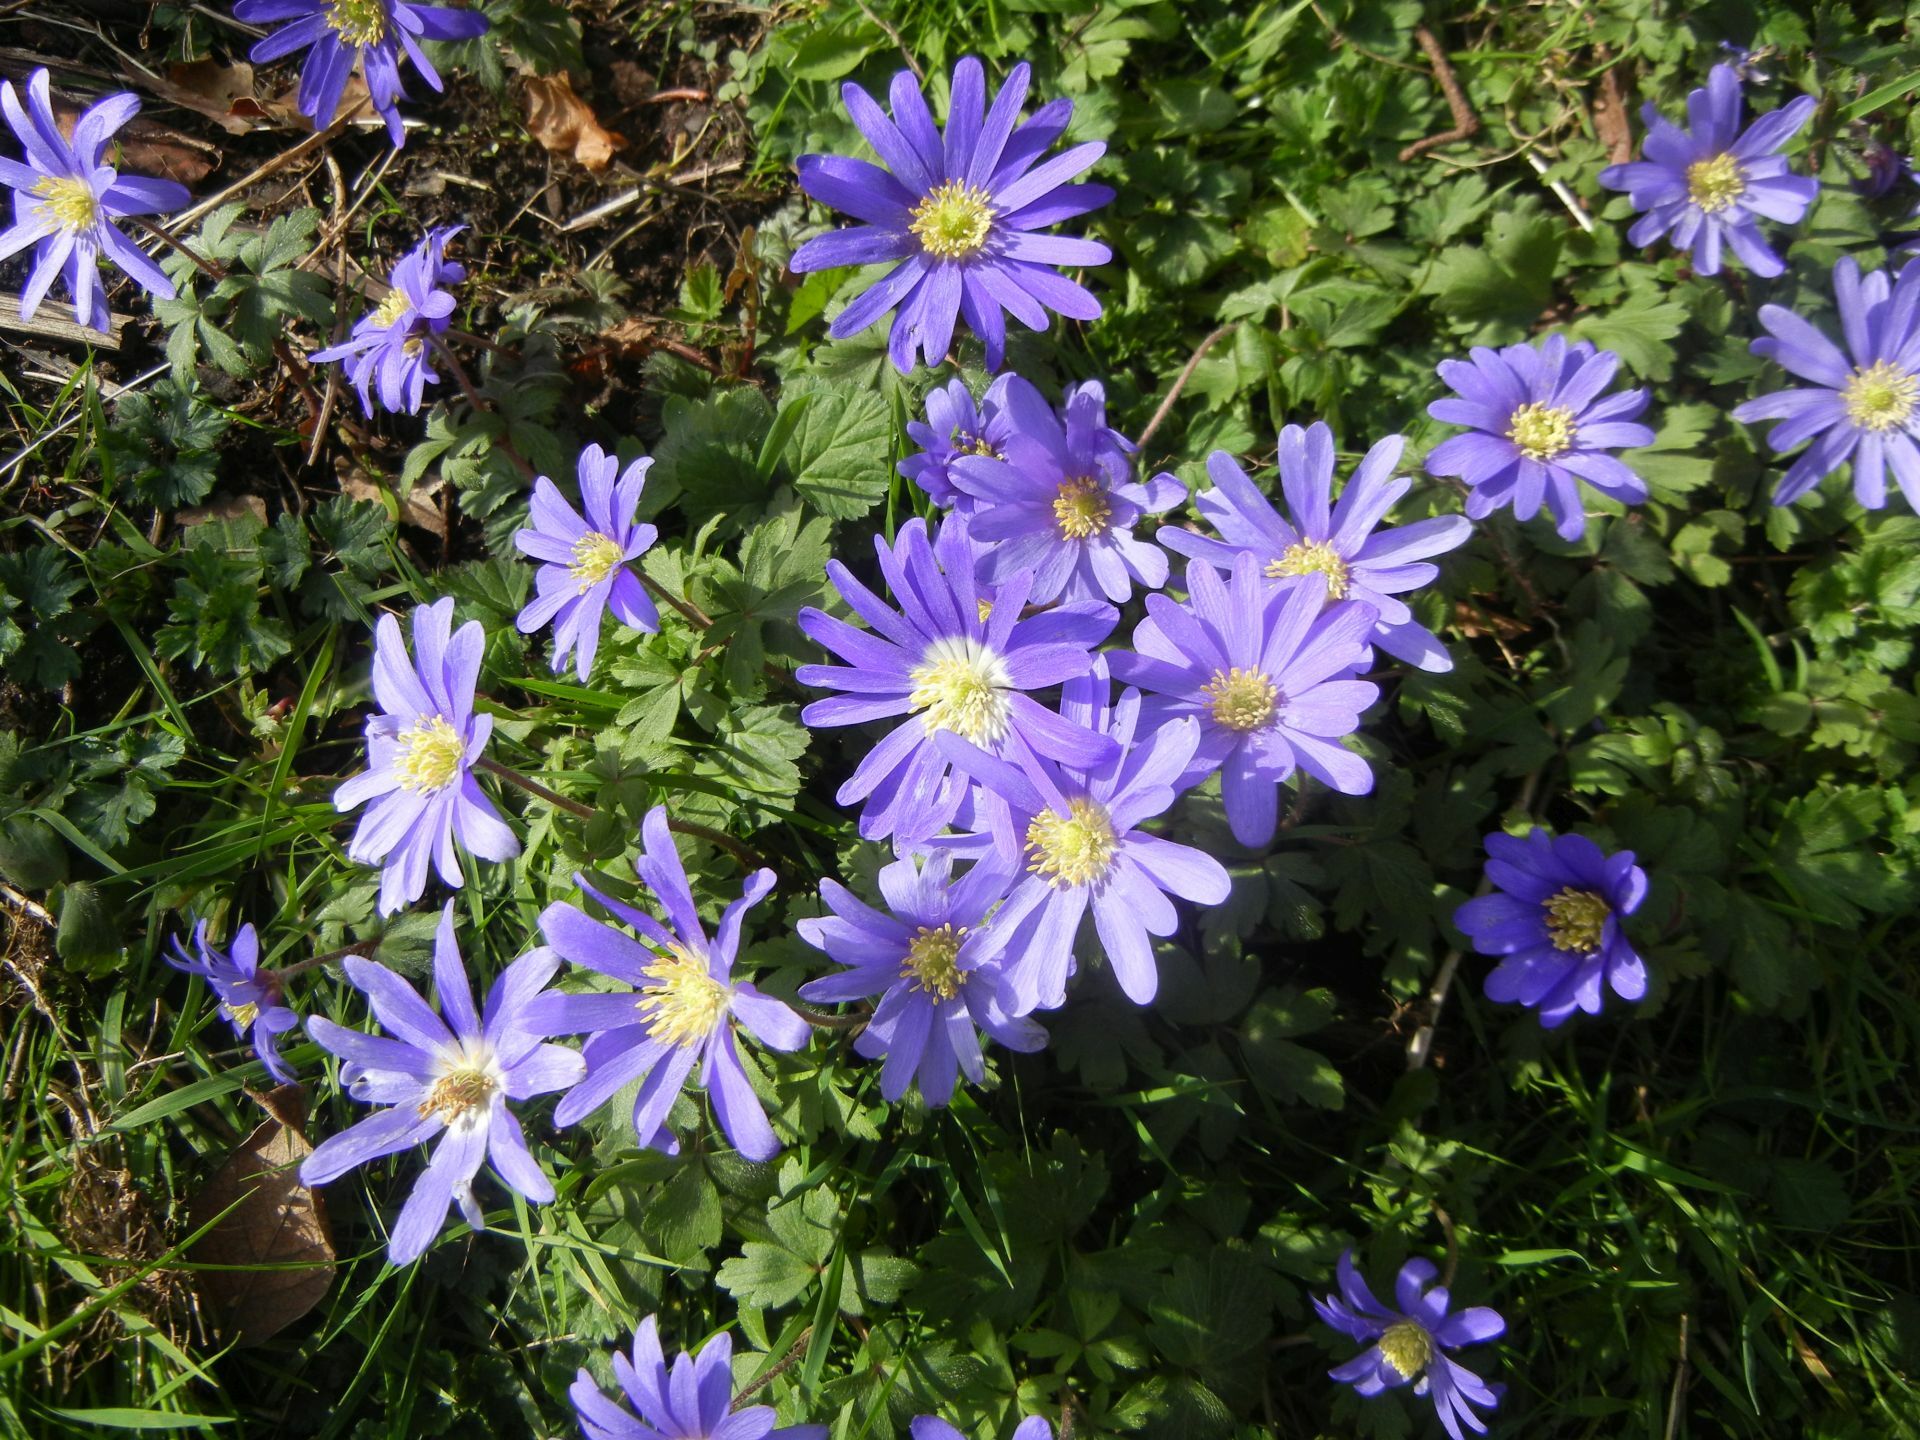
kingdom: Plantae
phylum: Tracheophyta
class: Magnoliopsida
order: Ranunculales
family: Ranunculaceae
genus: Anemone
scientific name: Anemone blanda
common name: Balkan anemone
